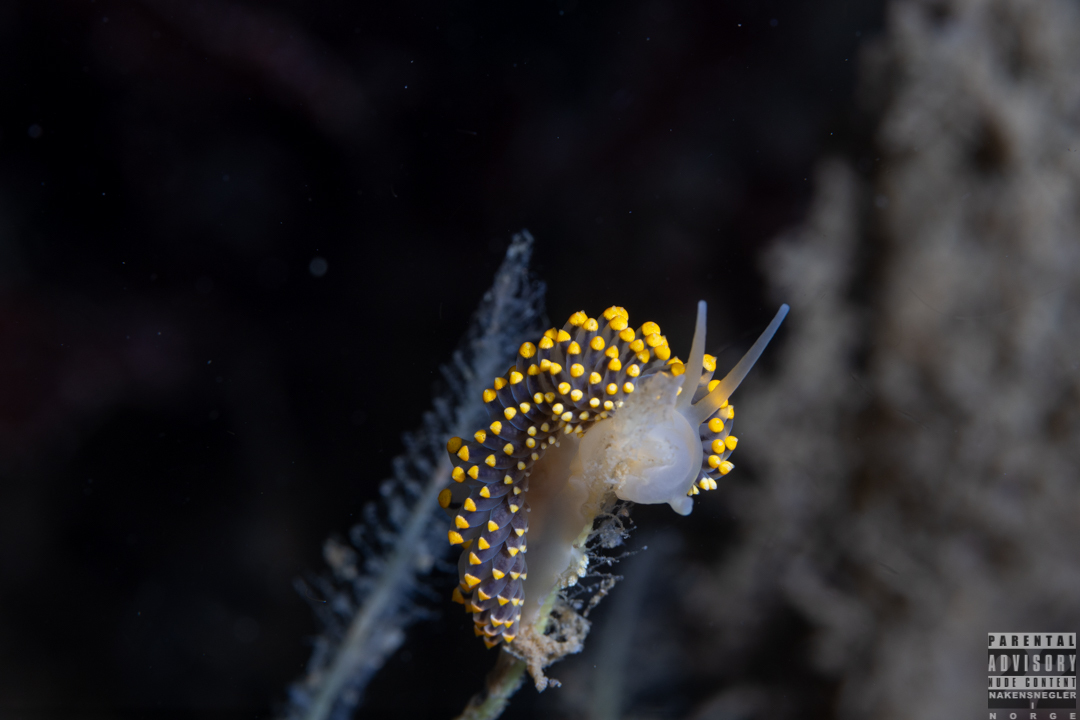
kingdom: Animalia
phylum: Mollusca
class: Gastropoda
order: Nudibranchia
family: Eubranchidae
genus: Eubranchus
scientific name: Eubranchus tricolor
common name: Painted balloon aeolis
